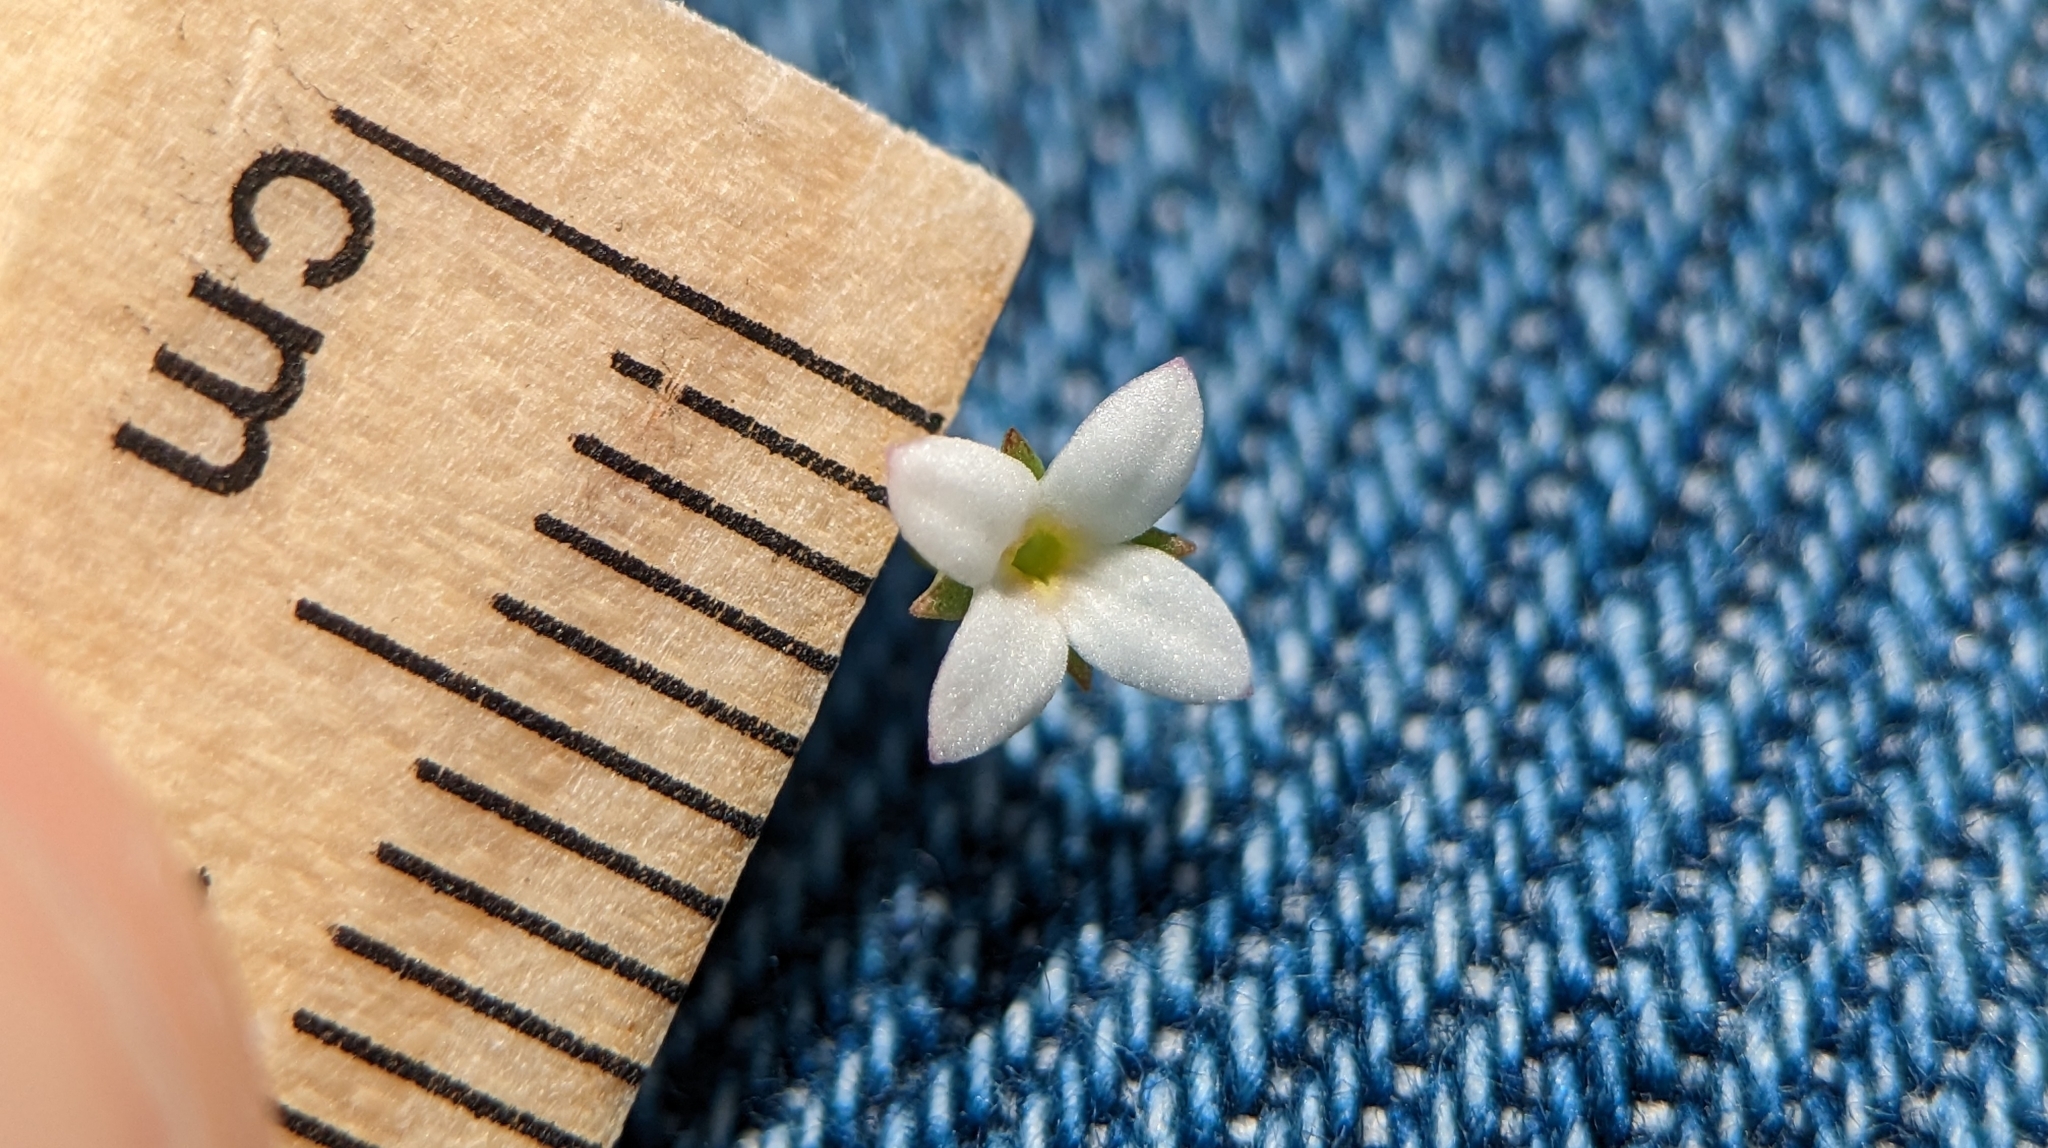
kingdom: Plantae
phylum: Tracheophyta
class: Magnoliopsida
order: Gentianales
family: Rubiaceae
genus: Houstonia
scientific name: Houstonia micrantha
